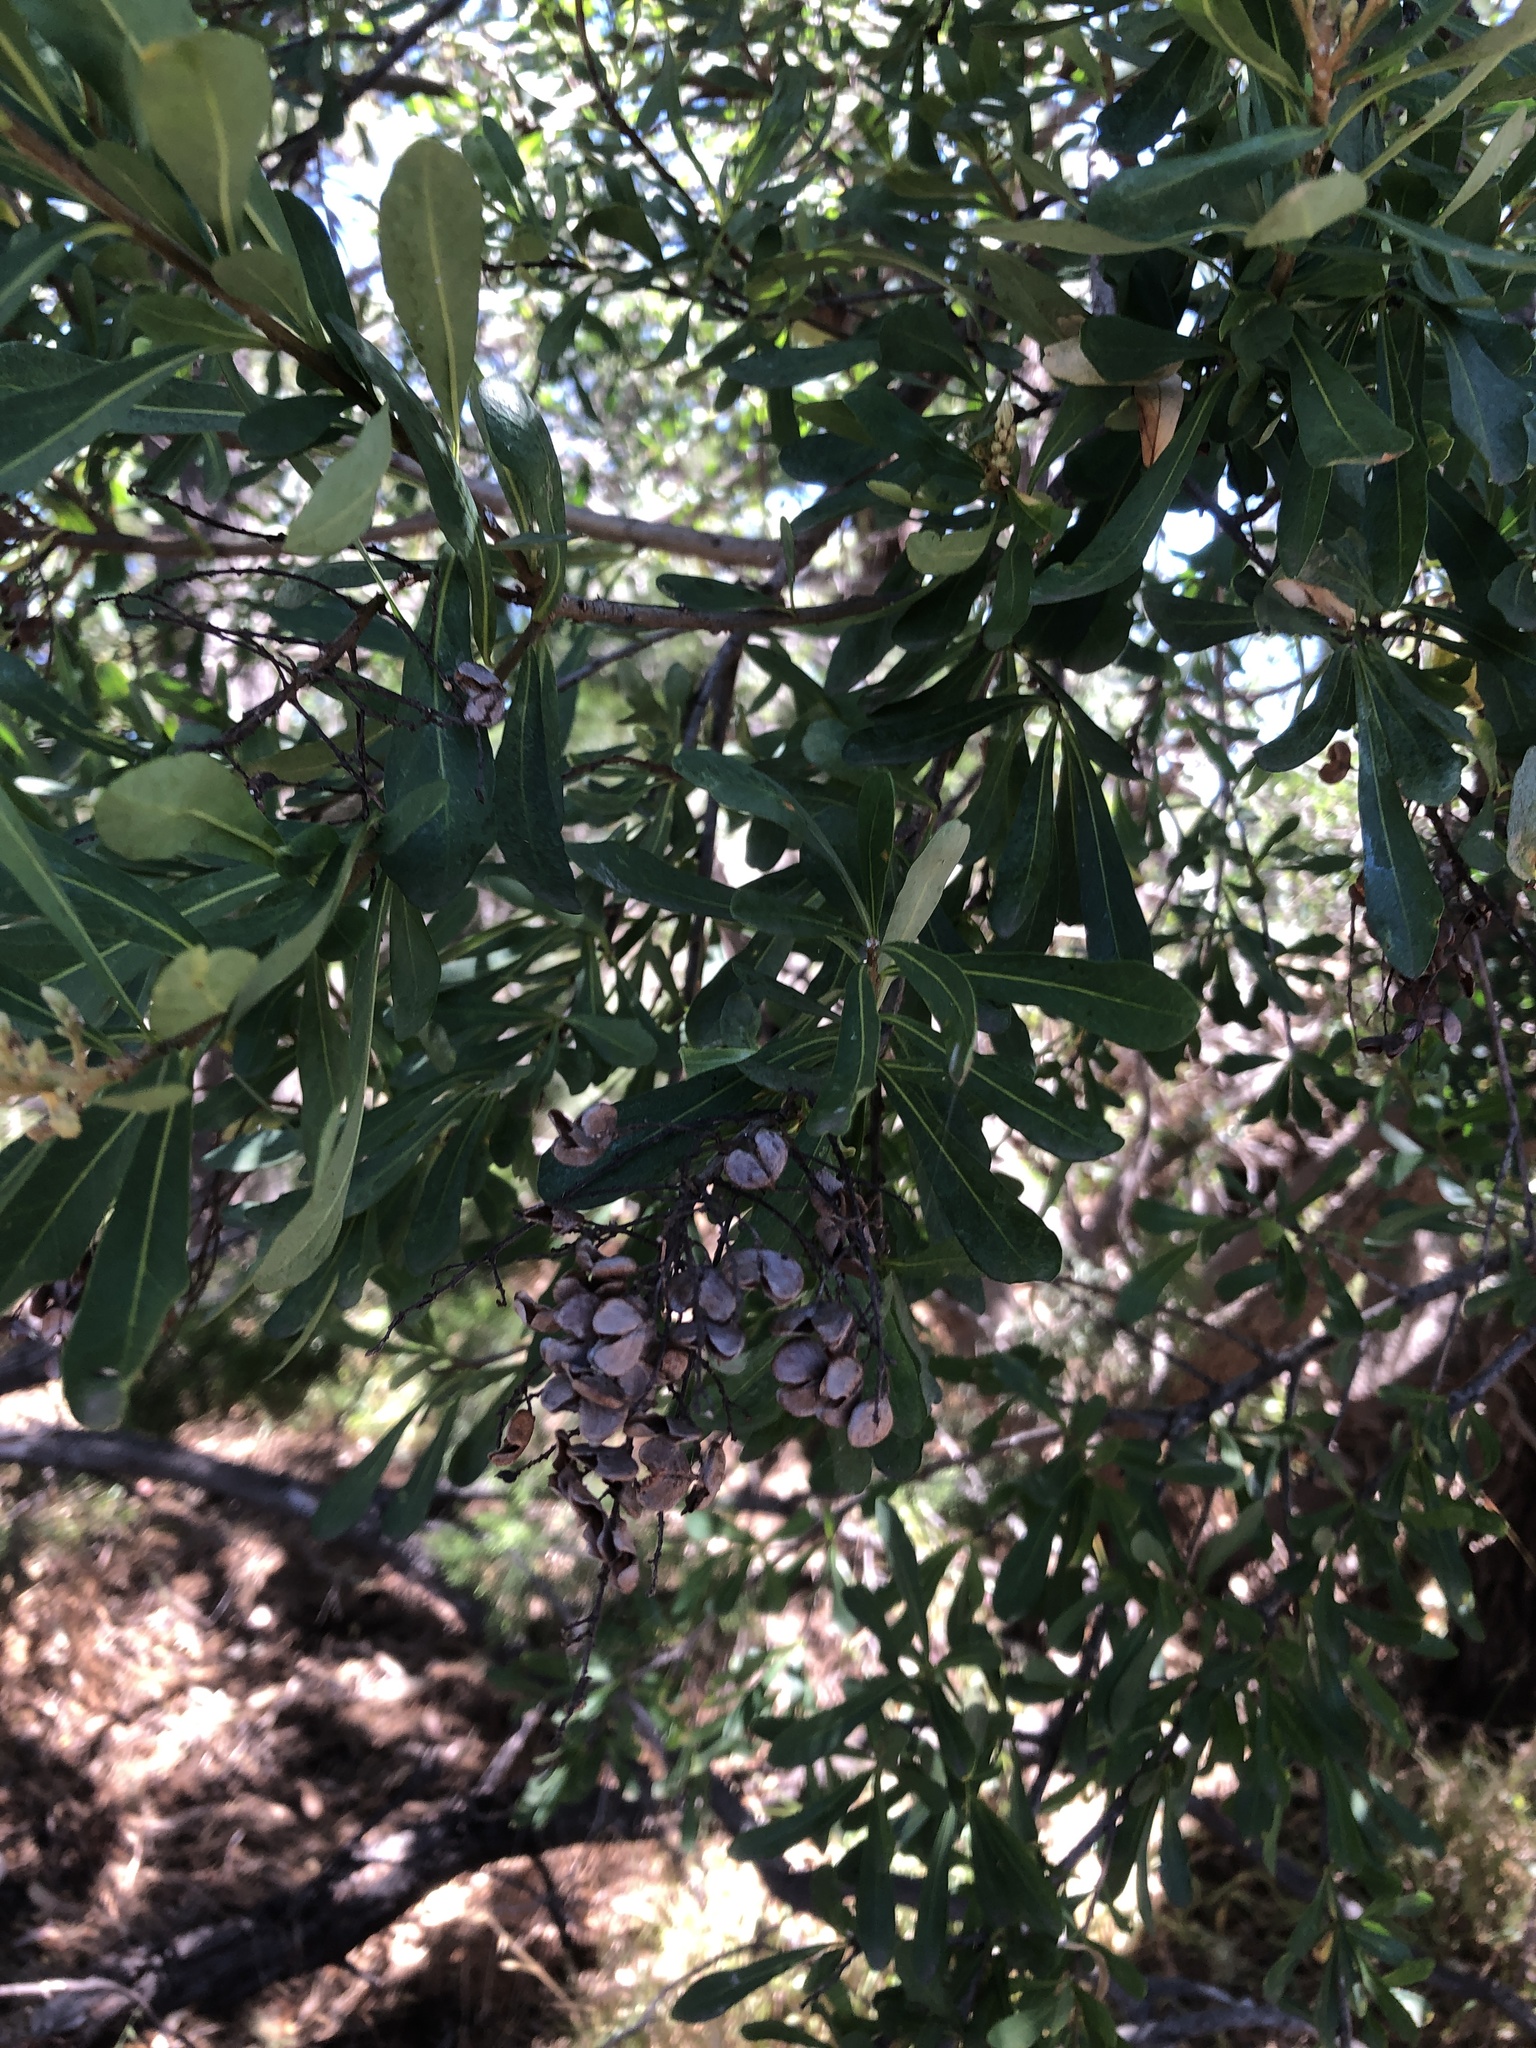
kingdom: Plantae
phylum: Tracheophyta
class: Magnoliopsida
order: Apiales
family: Pittosporaceae
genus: Bursaria
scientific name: Bursaria spinosa
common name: Australian blackthorn
